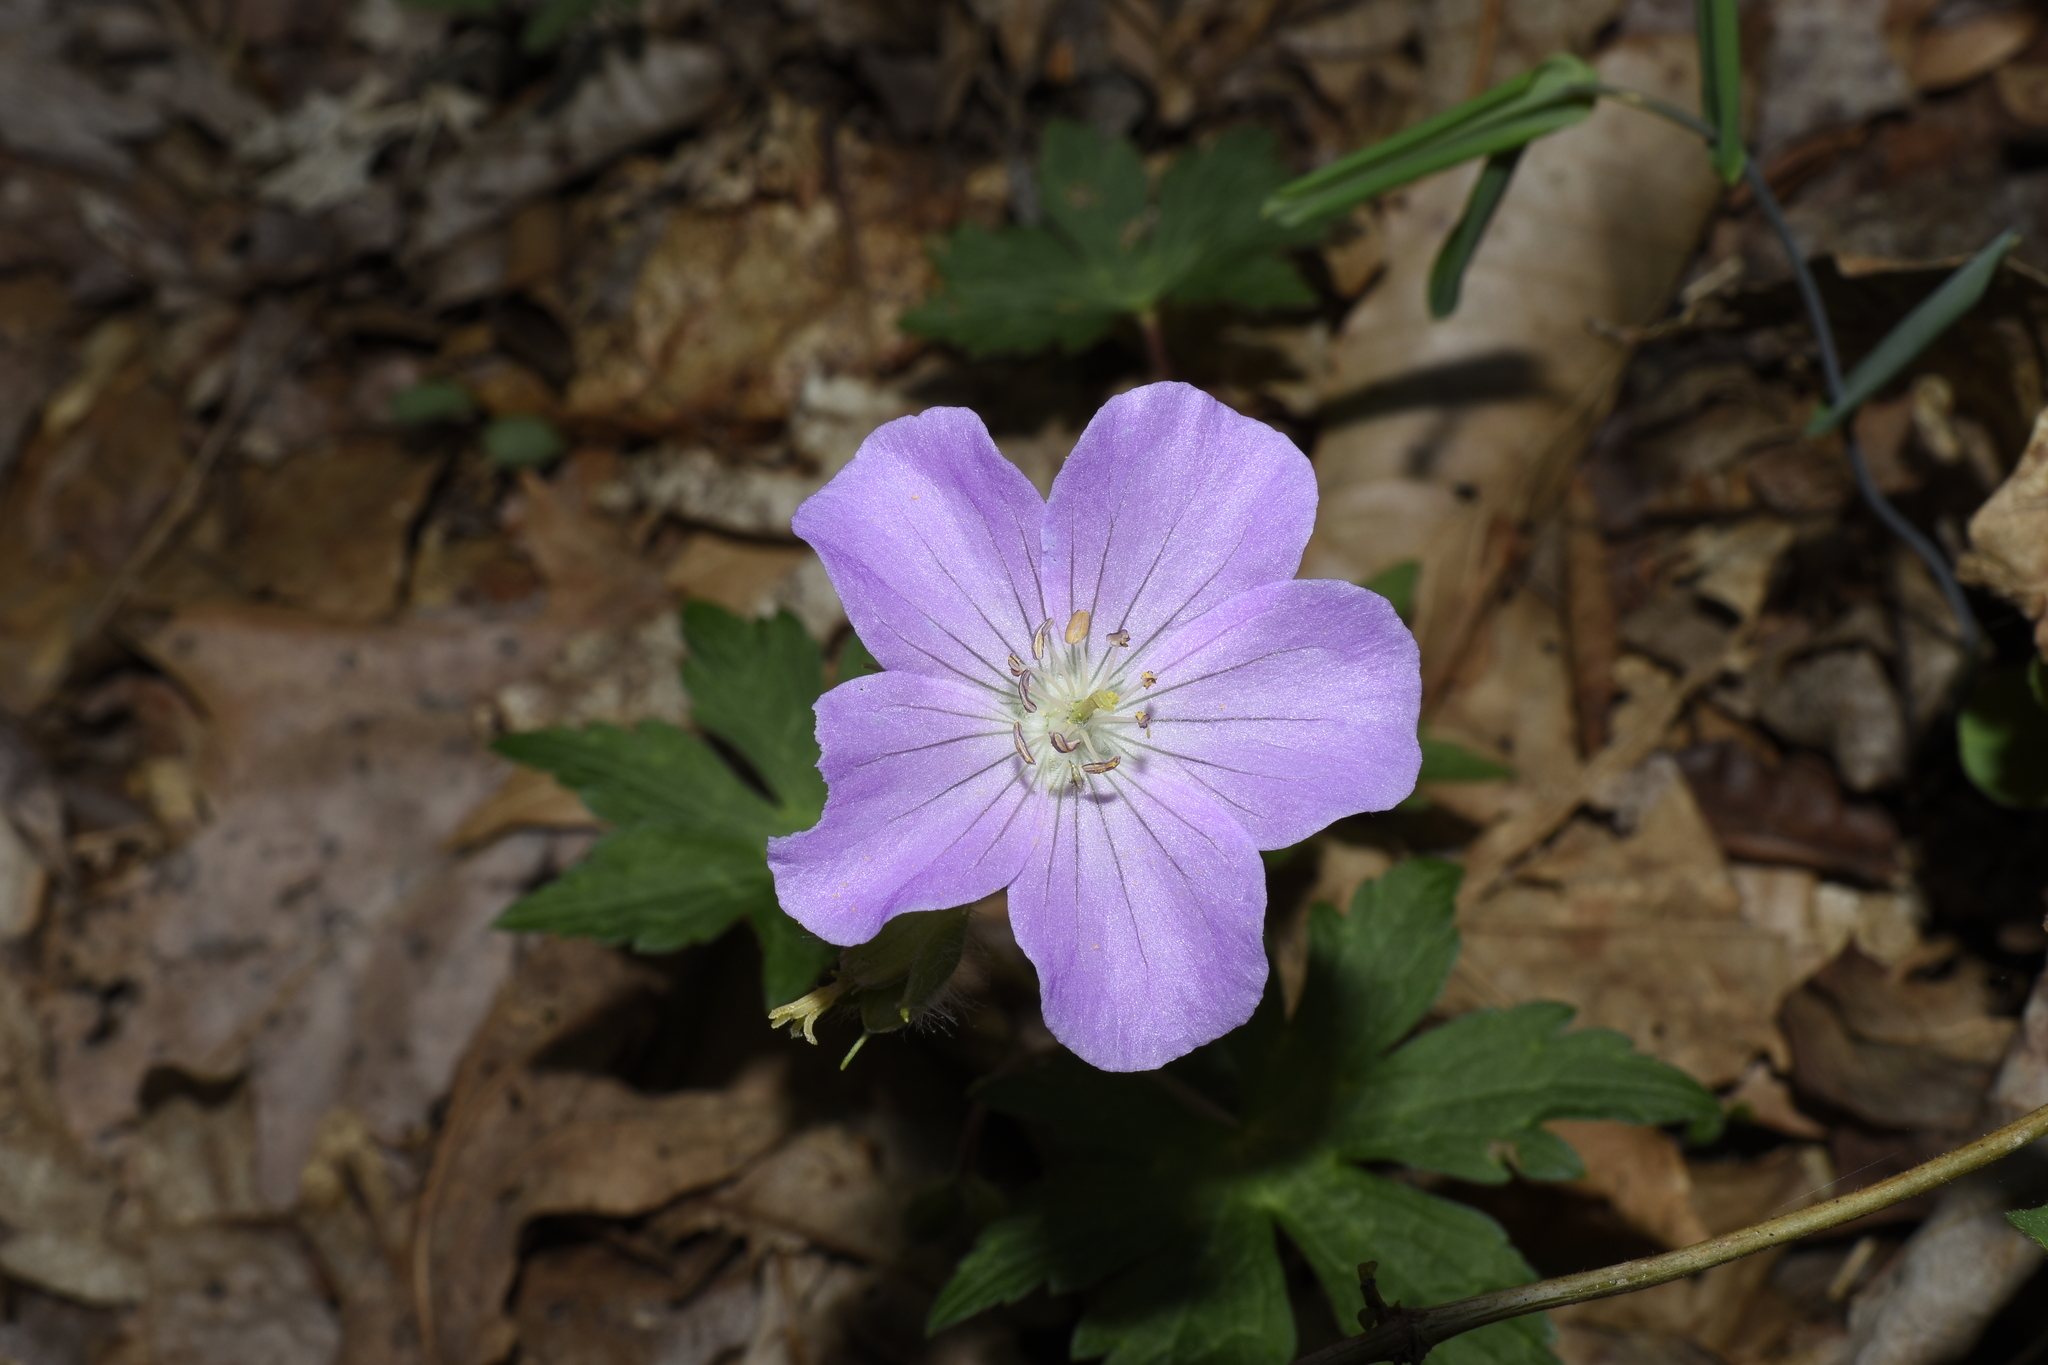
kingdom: Plantae
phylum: Tracheophyta
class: Magnoliopsida
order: Geraniales
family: Geraniaceae
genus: Geranium
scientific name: Geranium maculatum
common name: Spotted geranium
